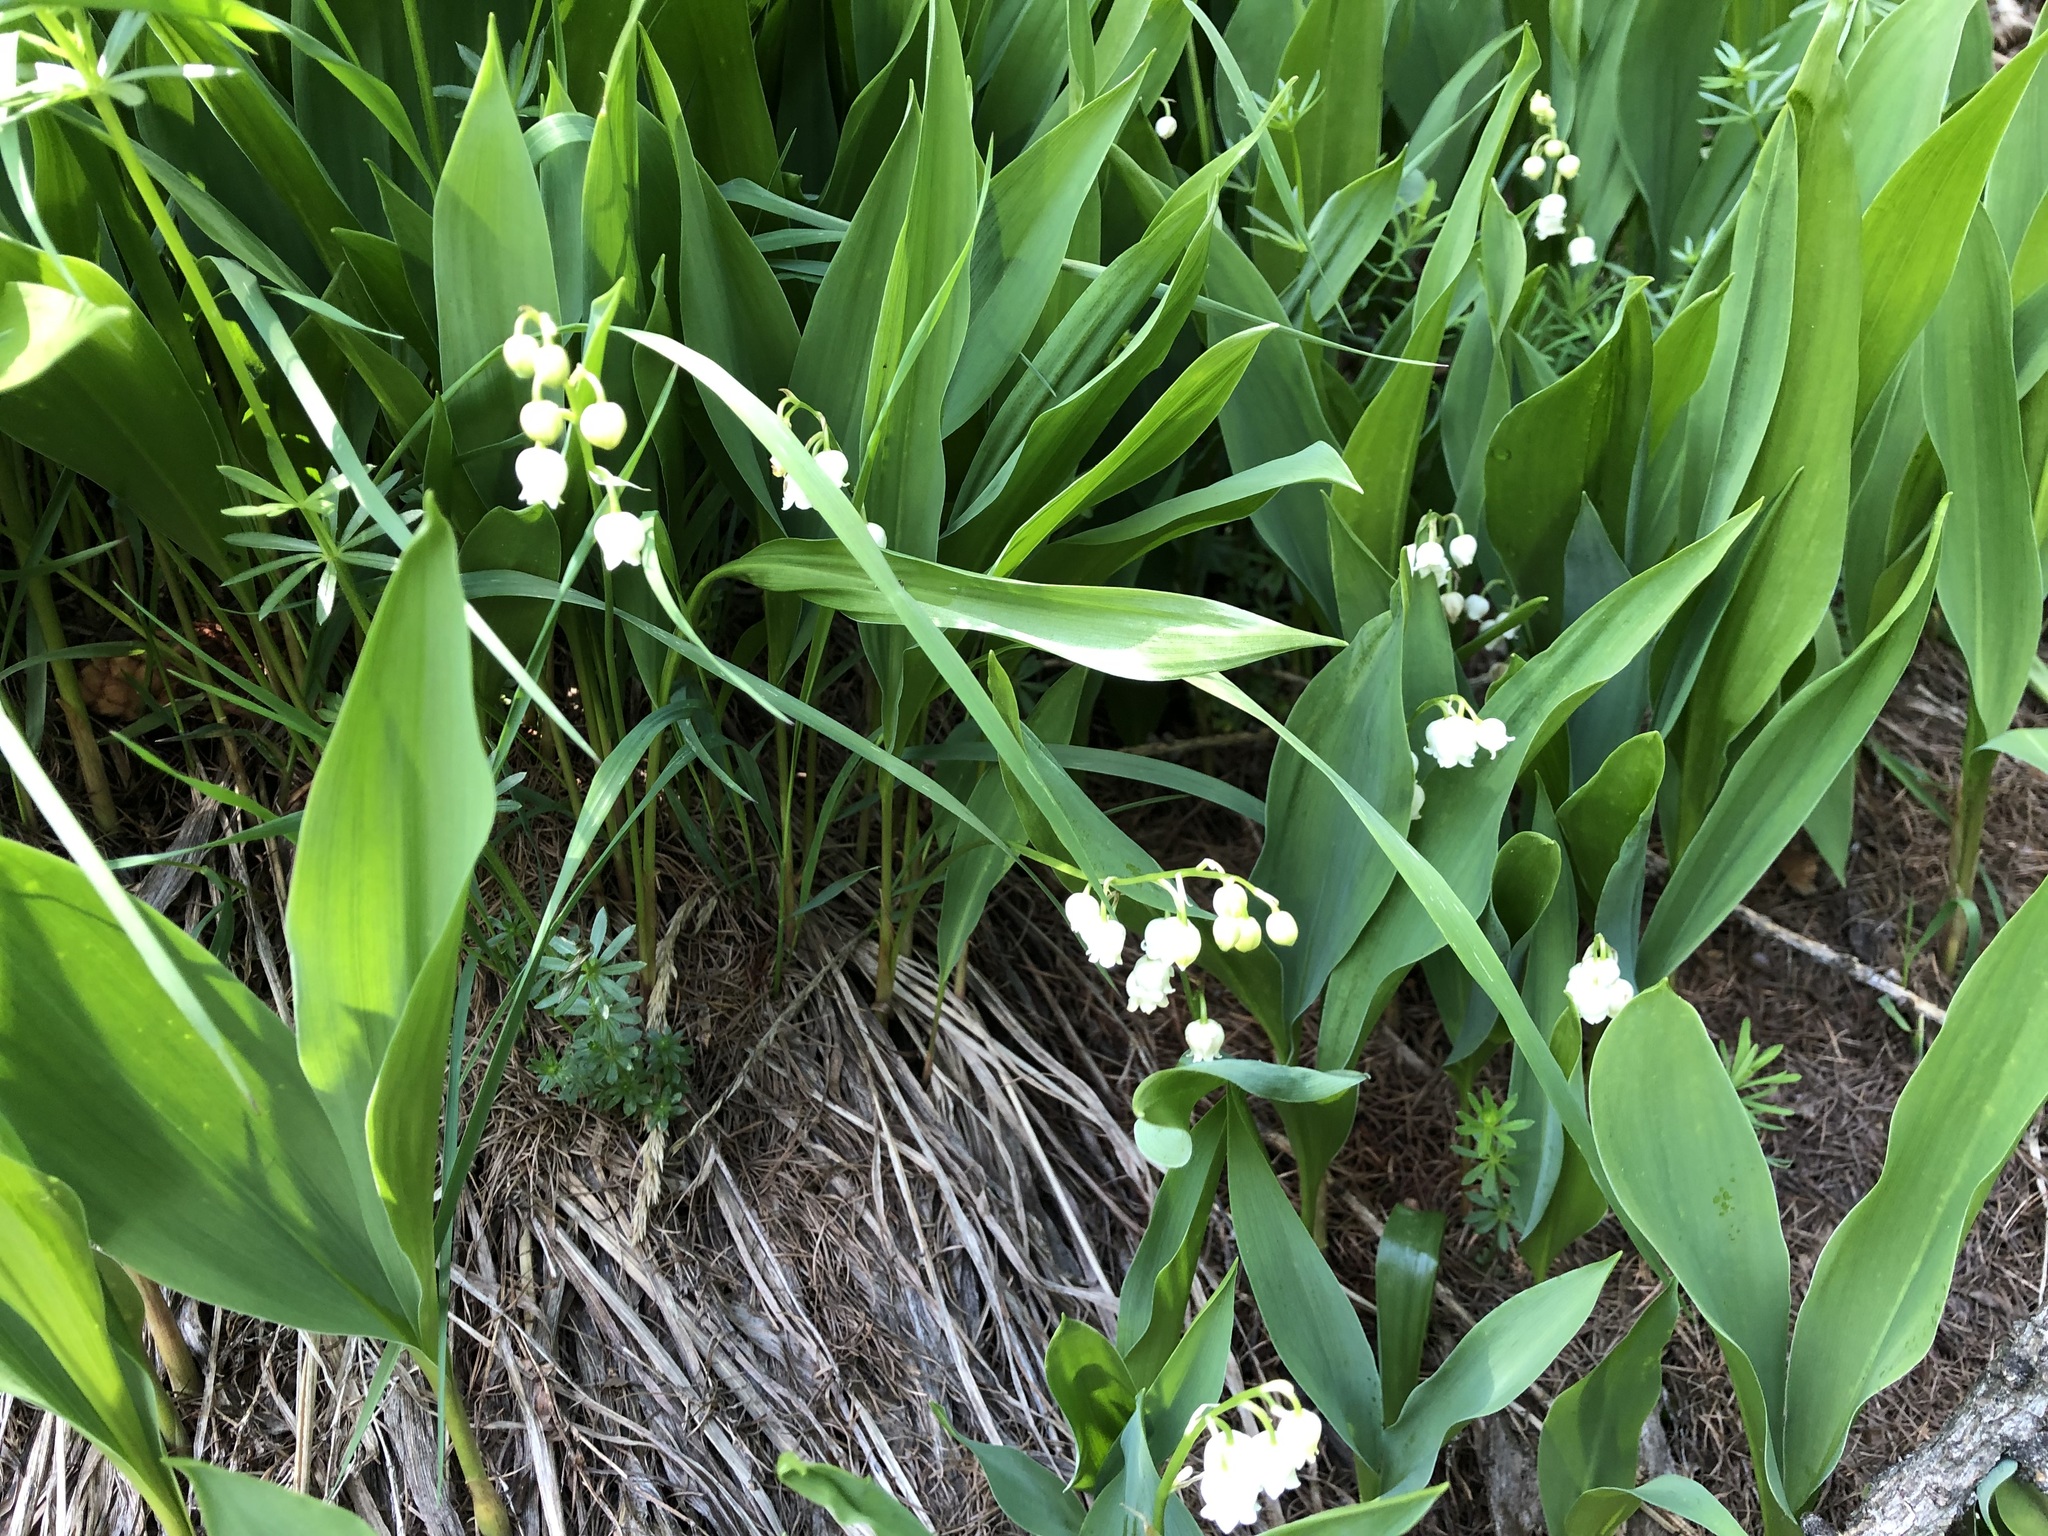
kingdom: Plantae
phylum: Tracheophyta
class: Liliopsida
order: Asparagales
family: Asparagaceae
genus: Convallaria
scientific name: Convallaria majalis
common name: Lily-of-the-valley
